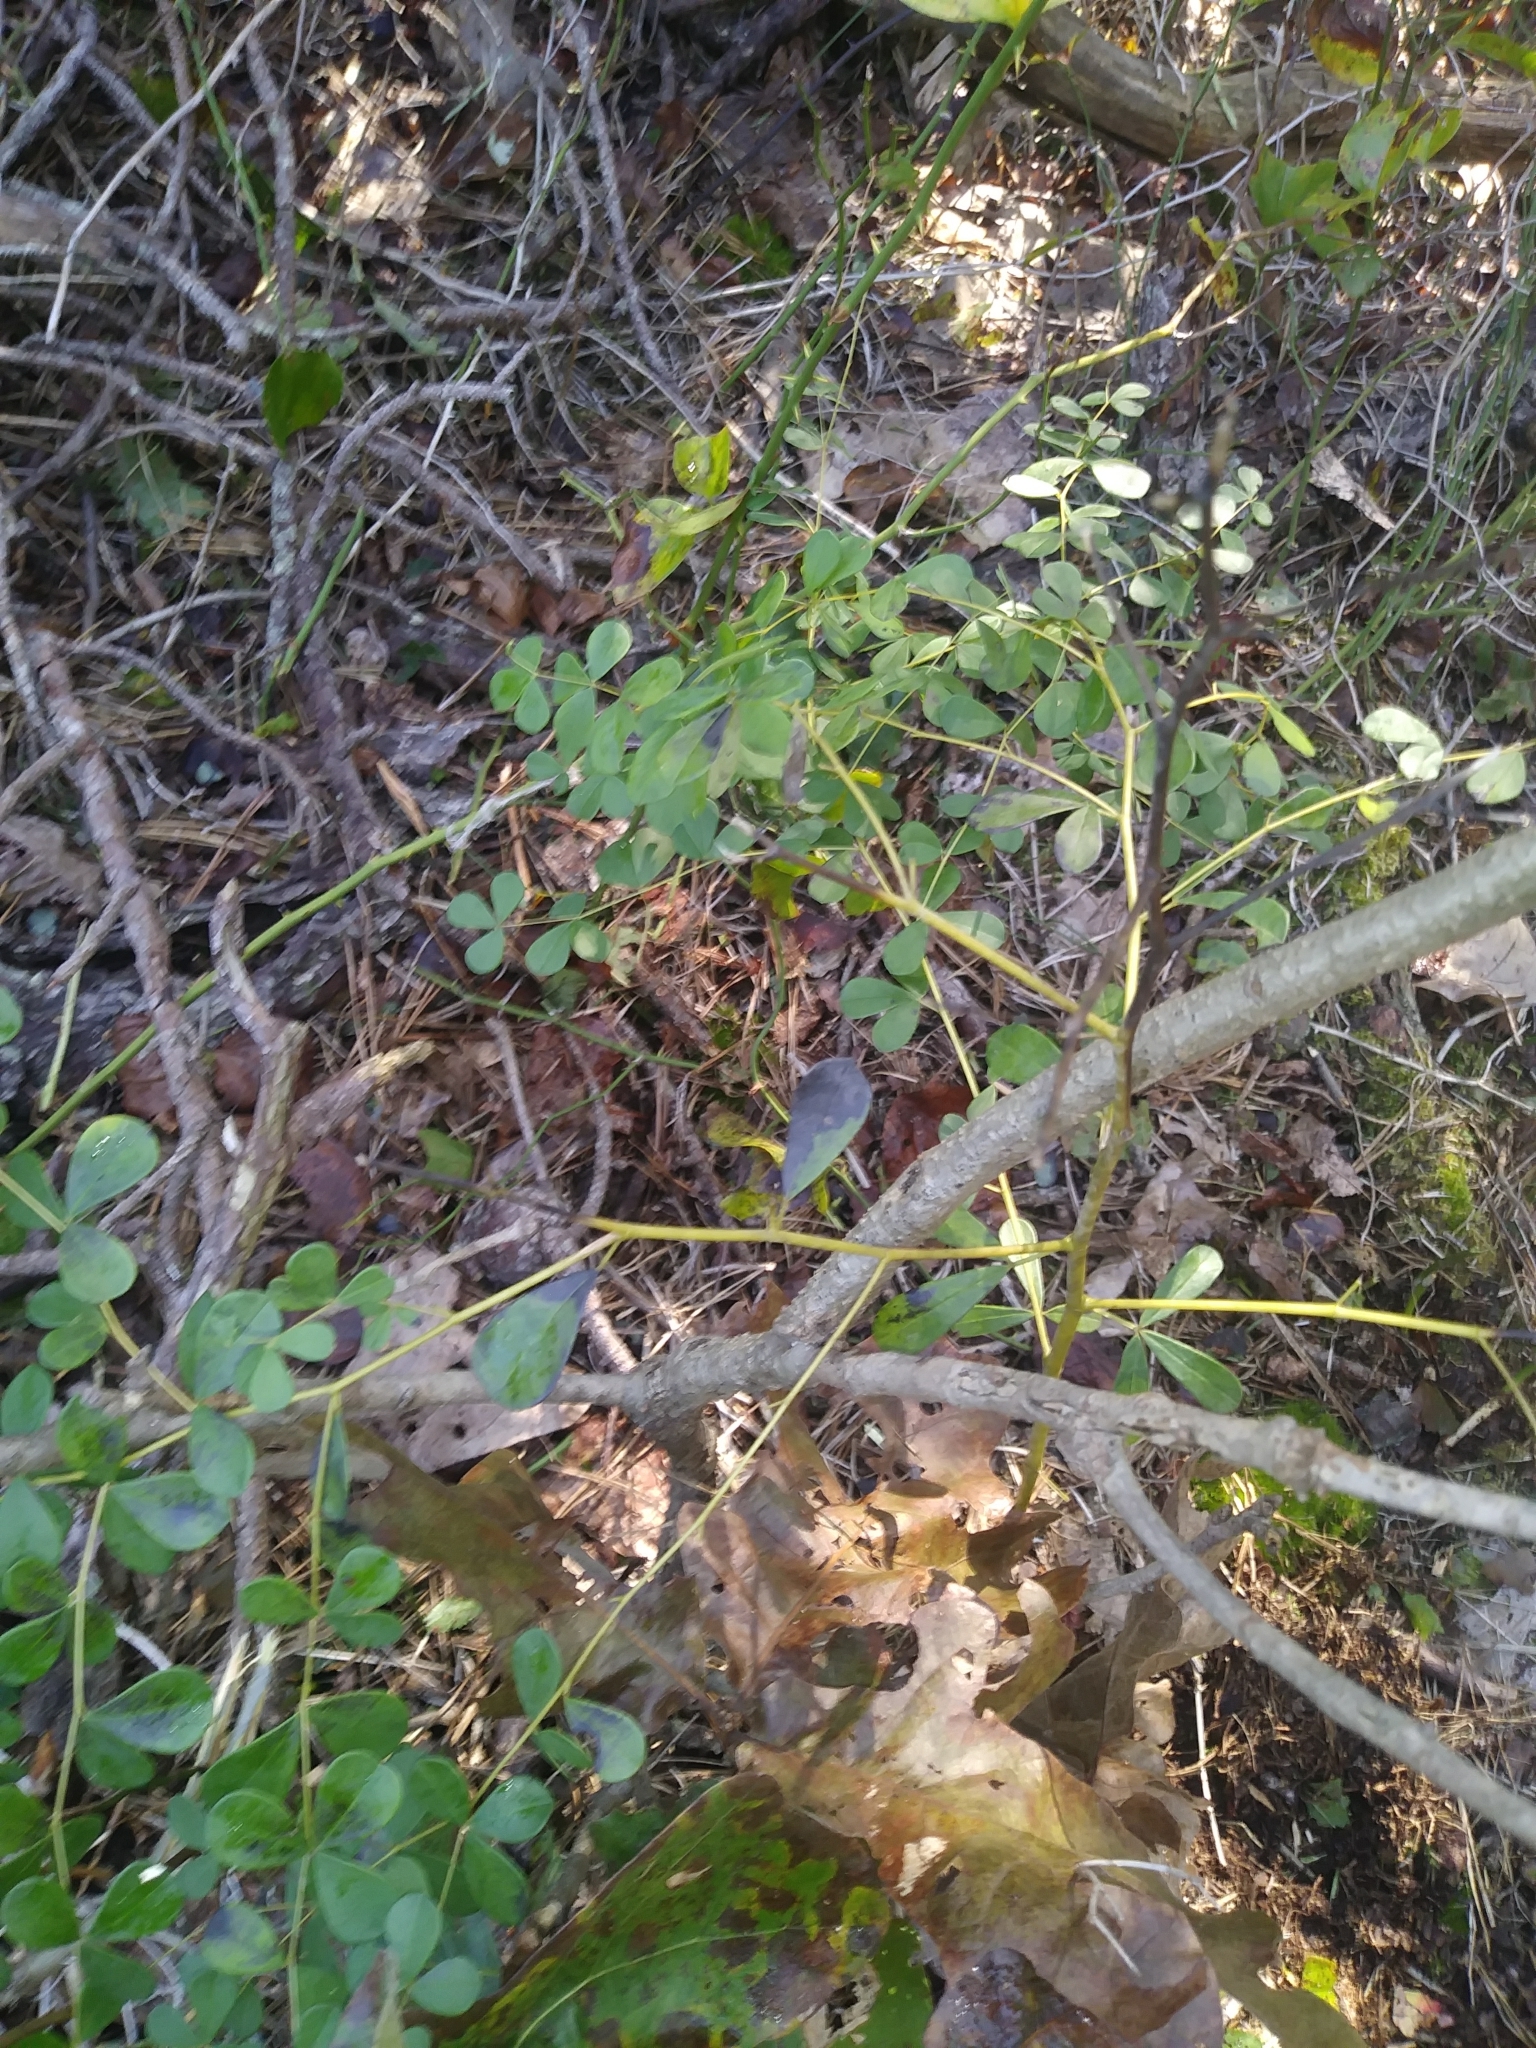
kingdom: Plantae
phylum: Tracheophyta
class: Magnoliopsida
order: Fabales
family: Fabaceae
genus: Baptisia
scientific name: Baptisia tinctoria
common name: Wild indigo
